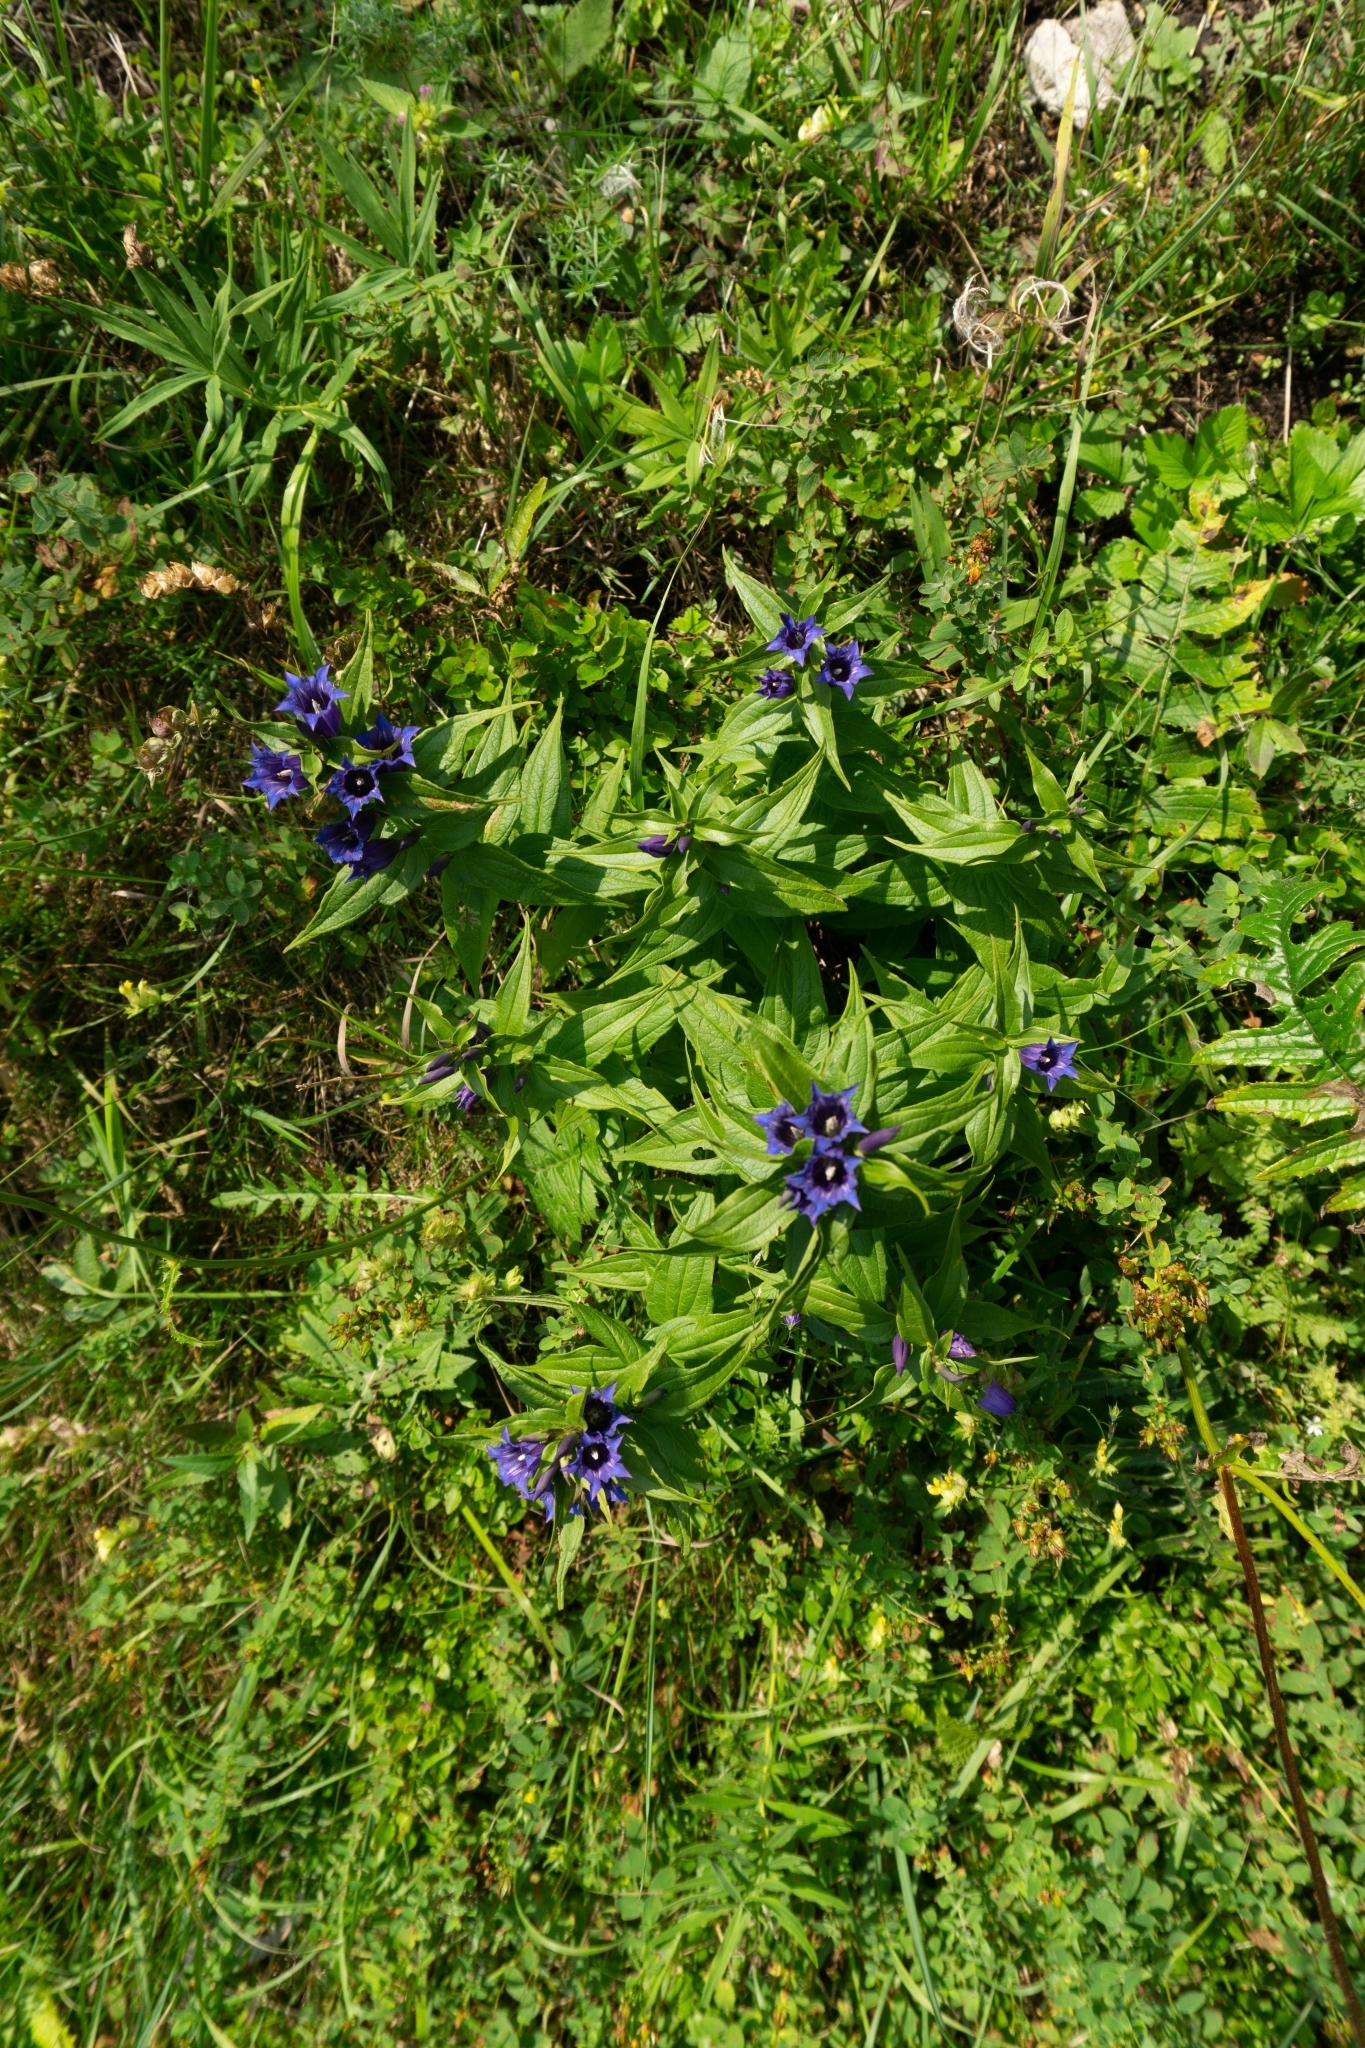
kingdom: Plantae
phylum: Tracheophyta
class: Magnoliopsida
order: Gentianales
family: Gentianaceae
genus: Gentiana
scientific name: Gentiana asclepiadea
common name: Willow gentian
